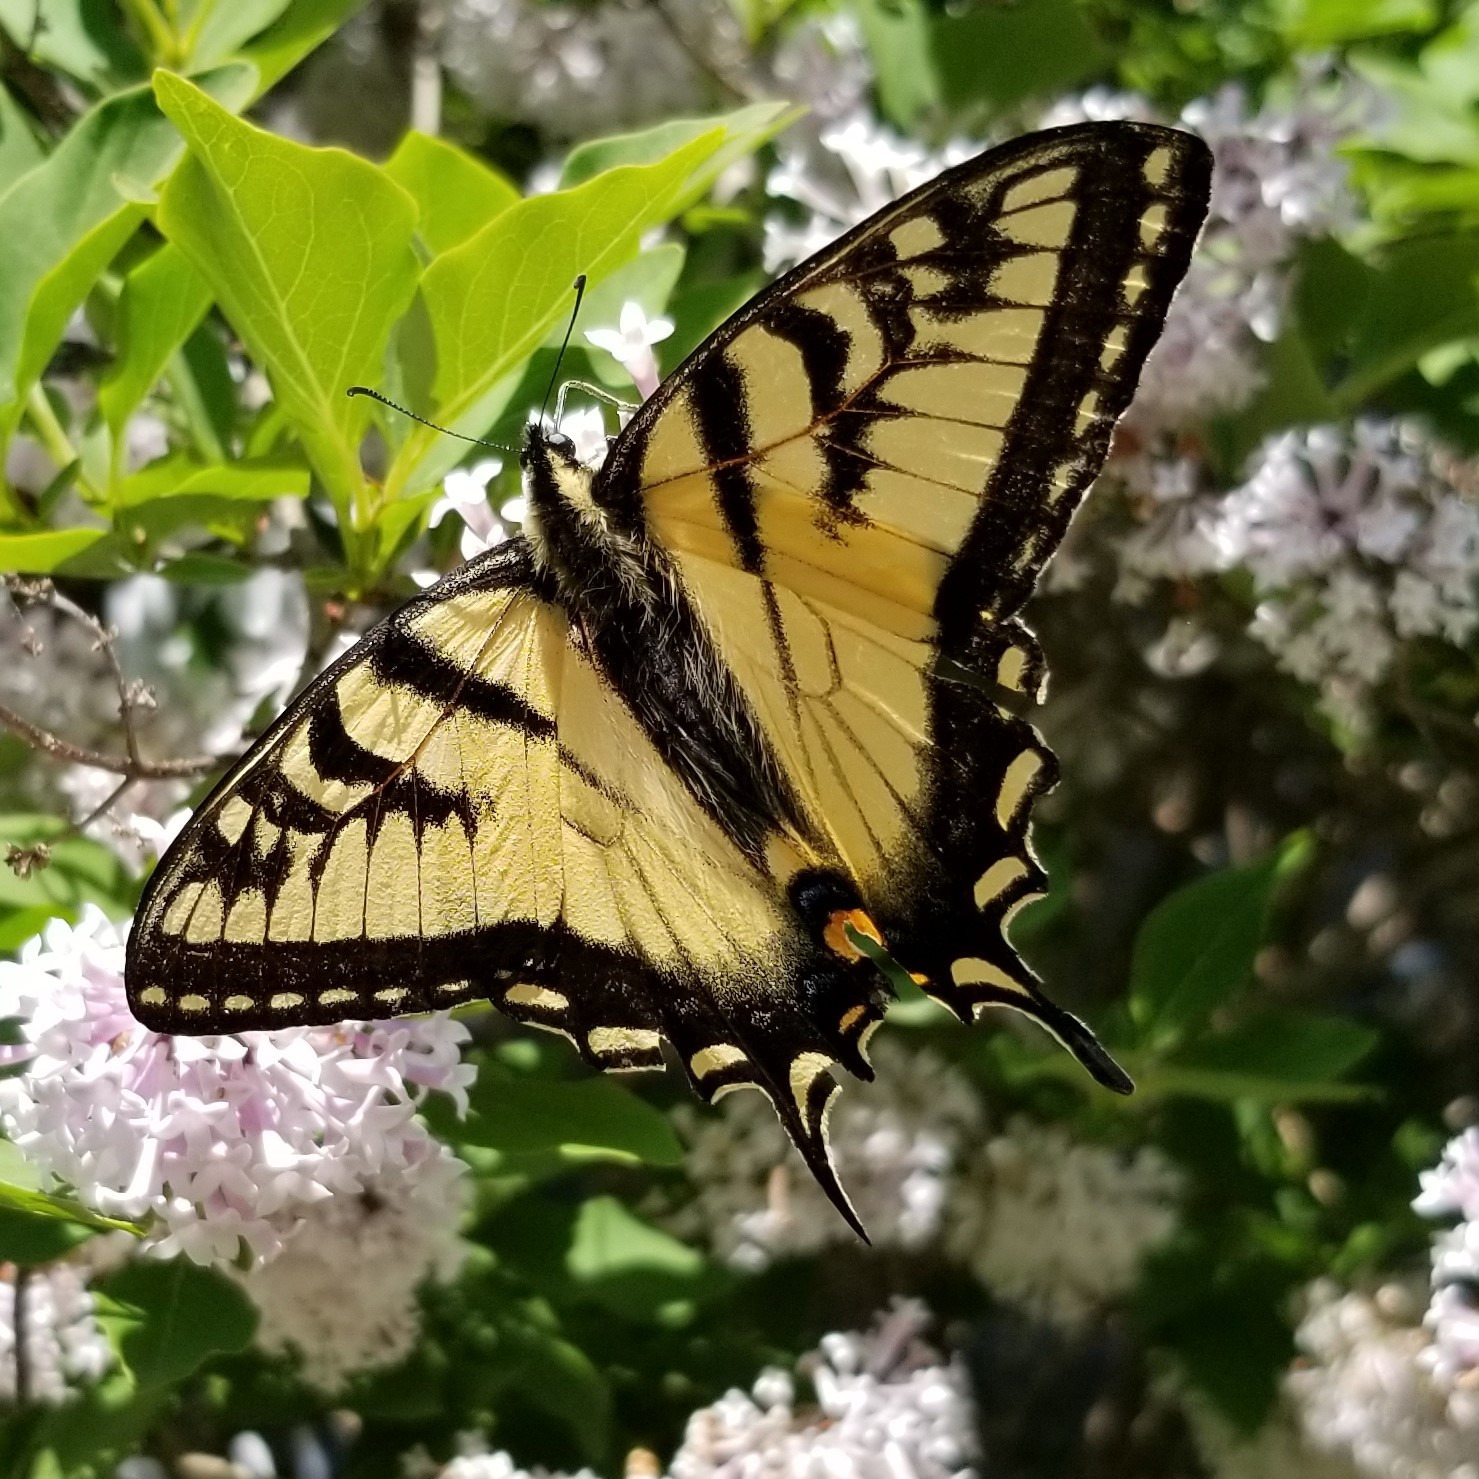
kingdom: Animalia
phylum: Arthropoda
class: Insecta
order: Lepidoptera
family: Papilionidae
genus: Papilio
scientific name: Papilio canadensis
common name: Canadian tiger swallowtail
